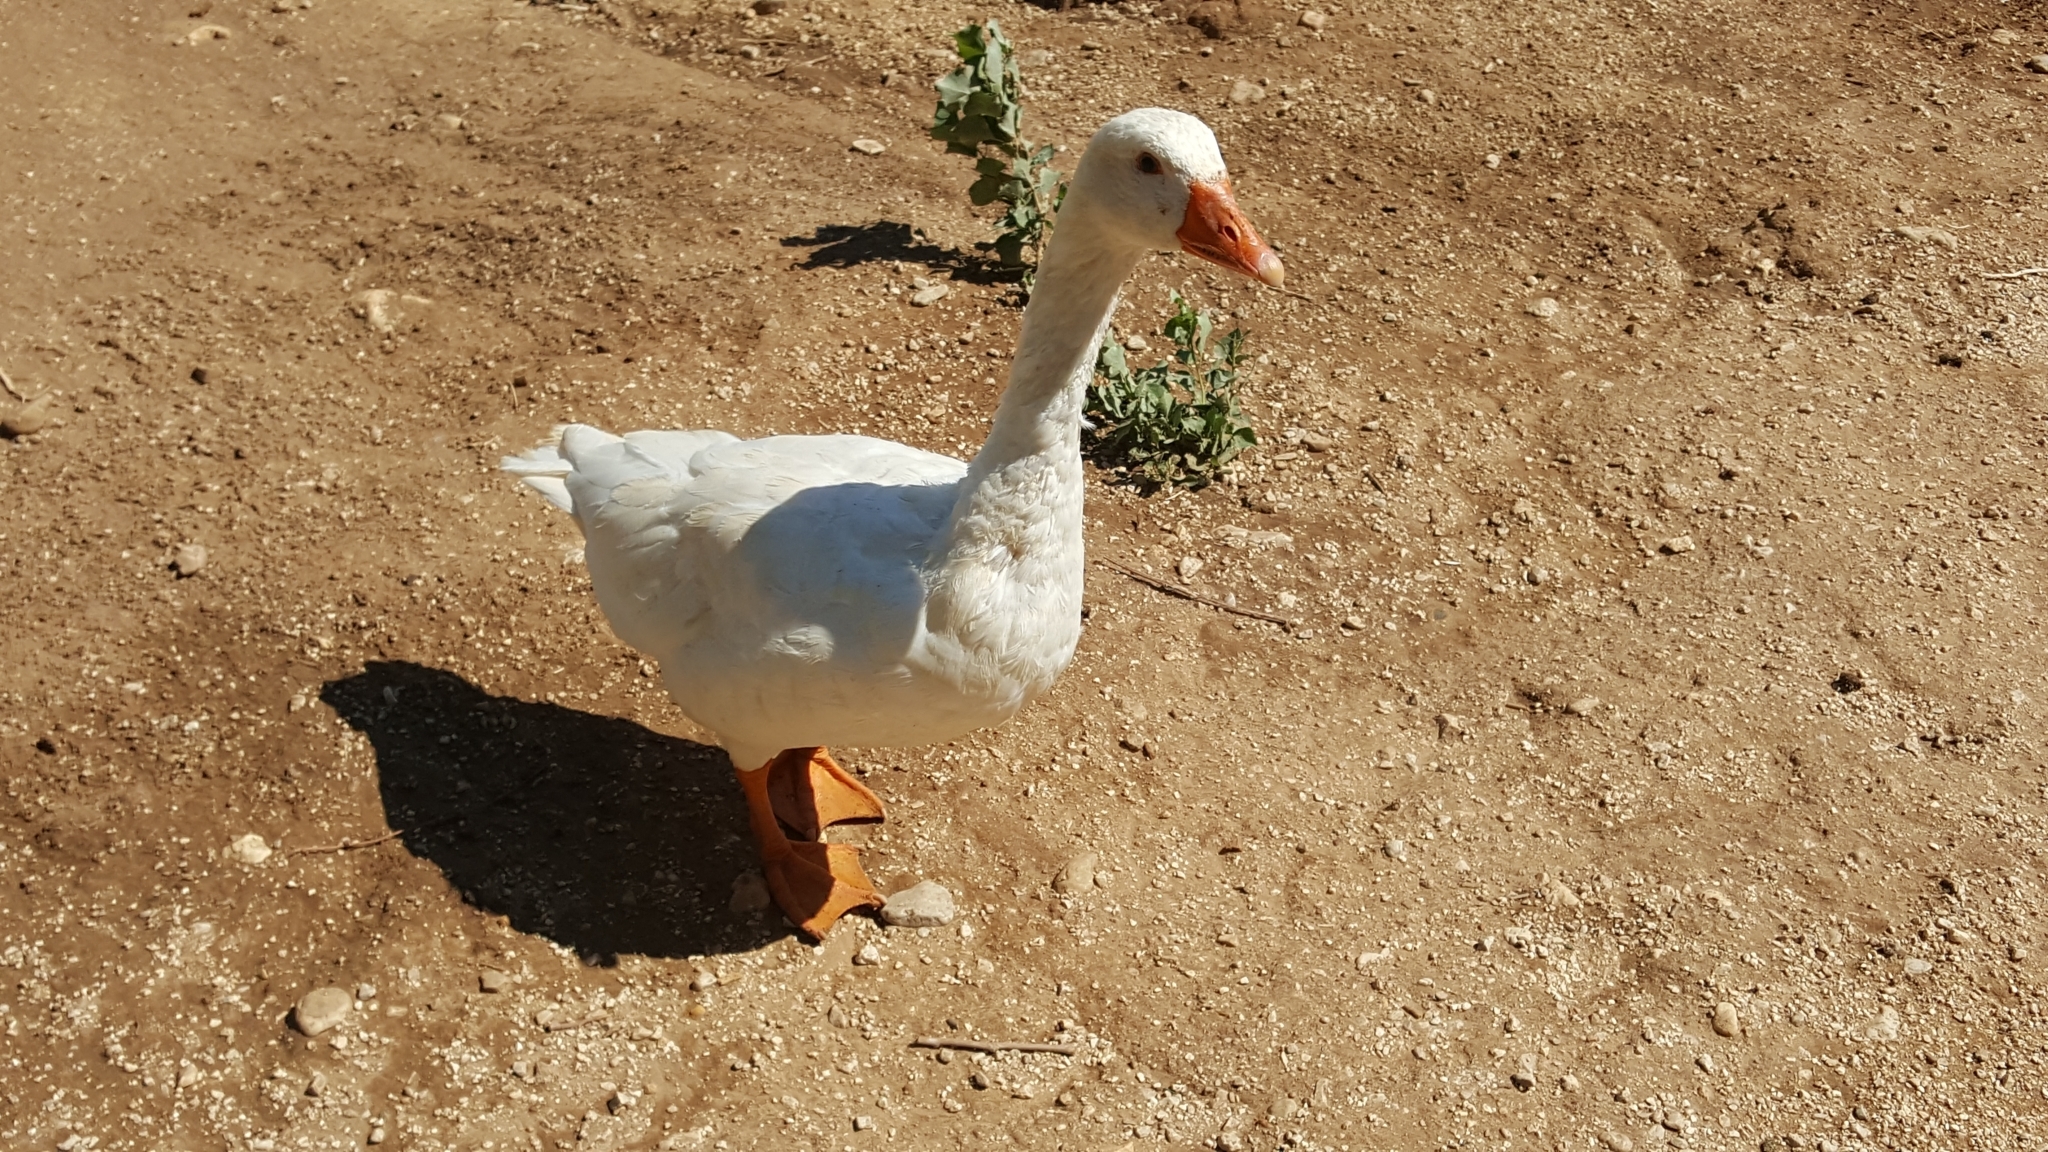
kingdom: Animalia
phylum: Chordata
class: Aves
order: Anseriformes
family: Anatidae
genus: Anser
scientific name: Anser anser
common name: Greylag goose
